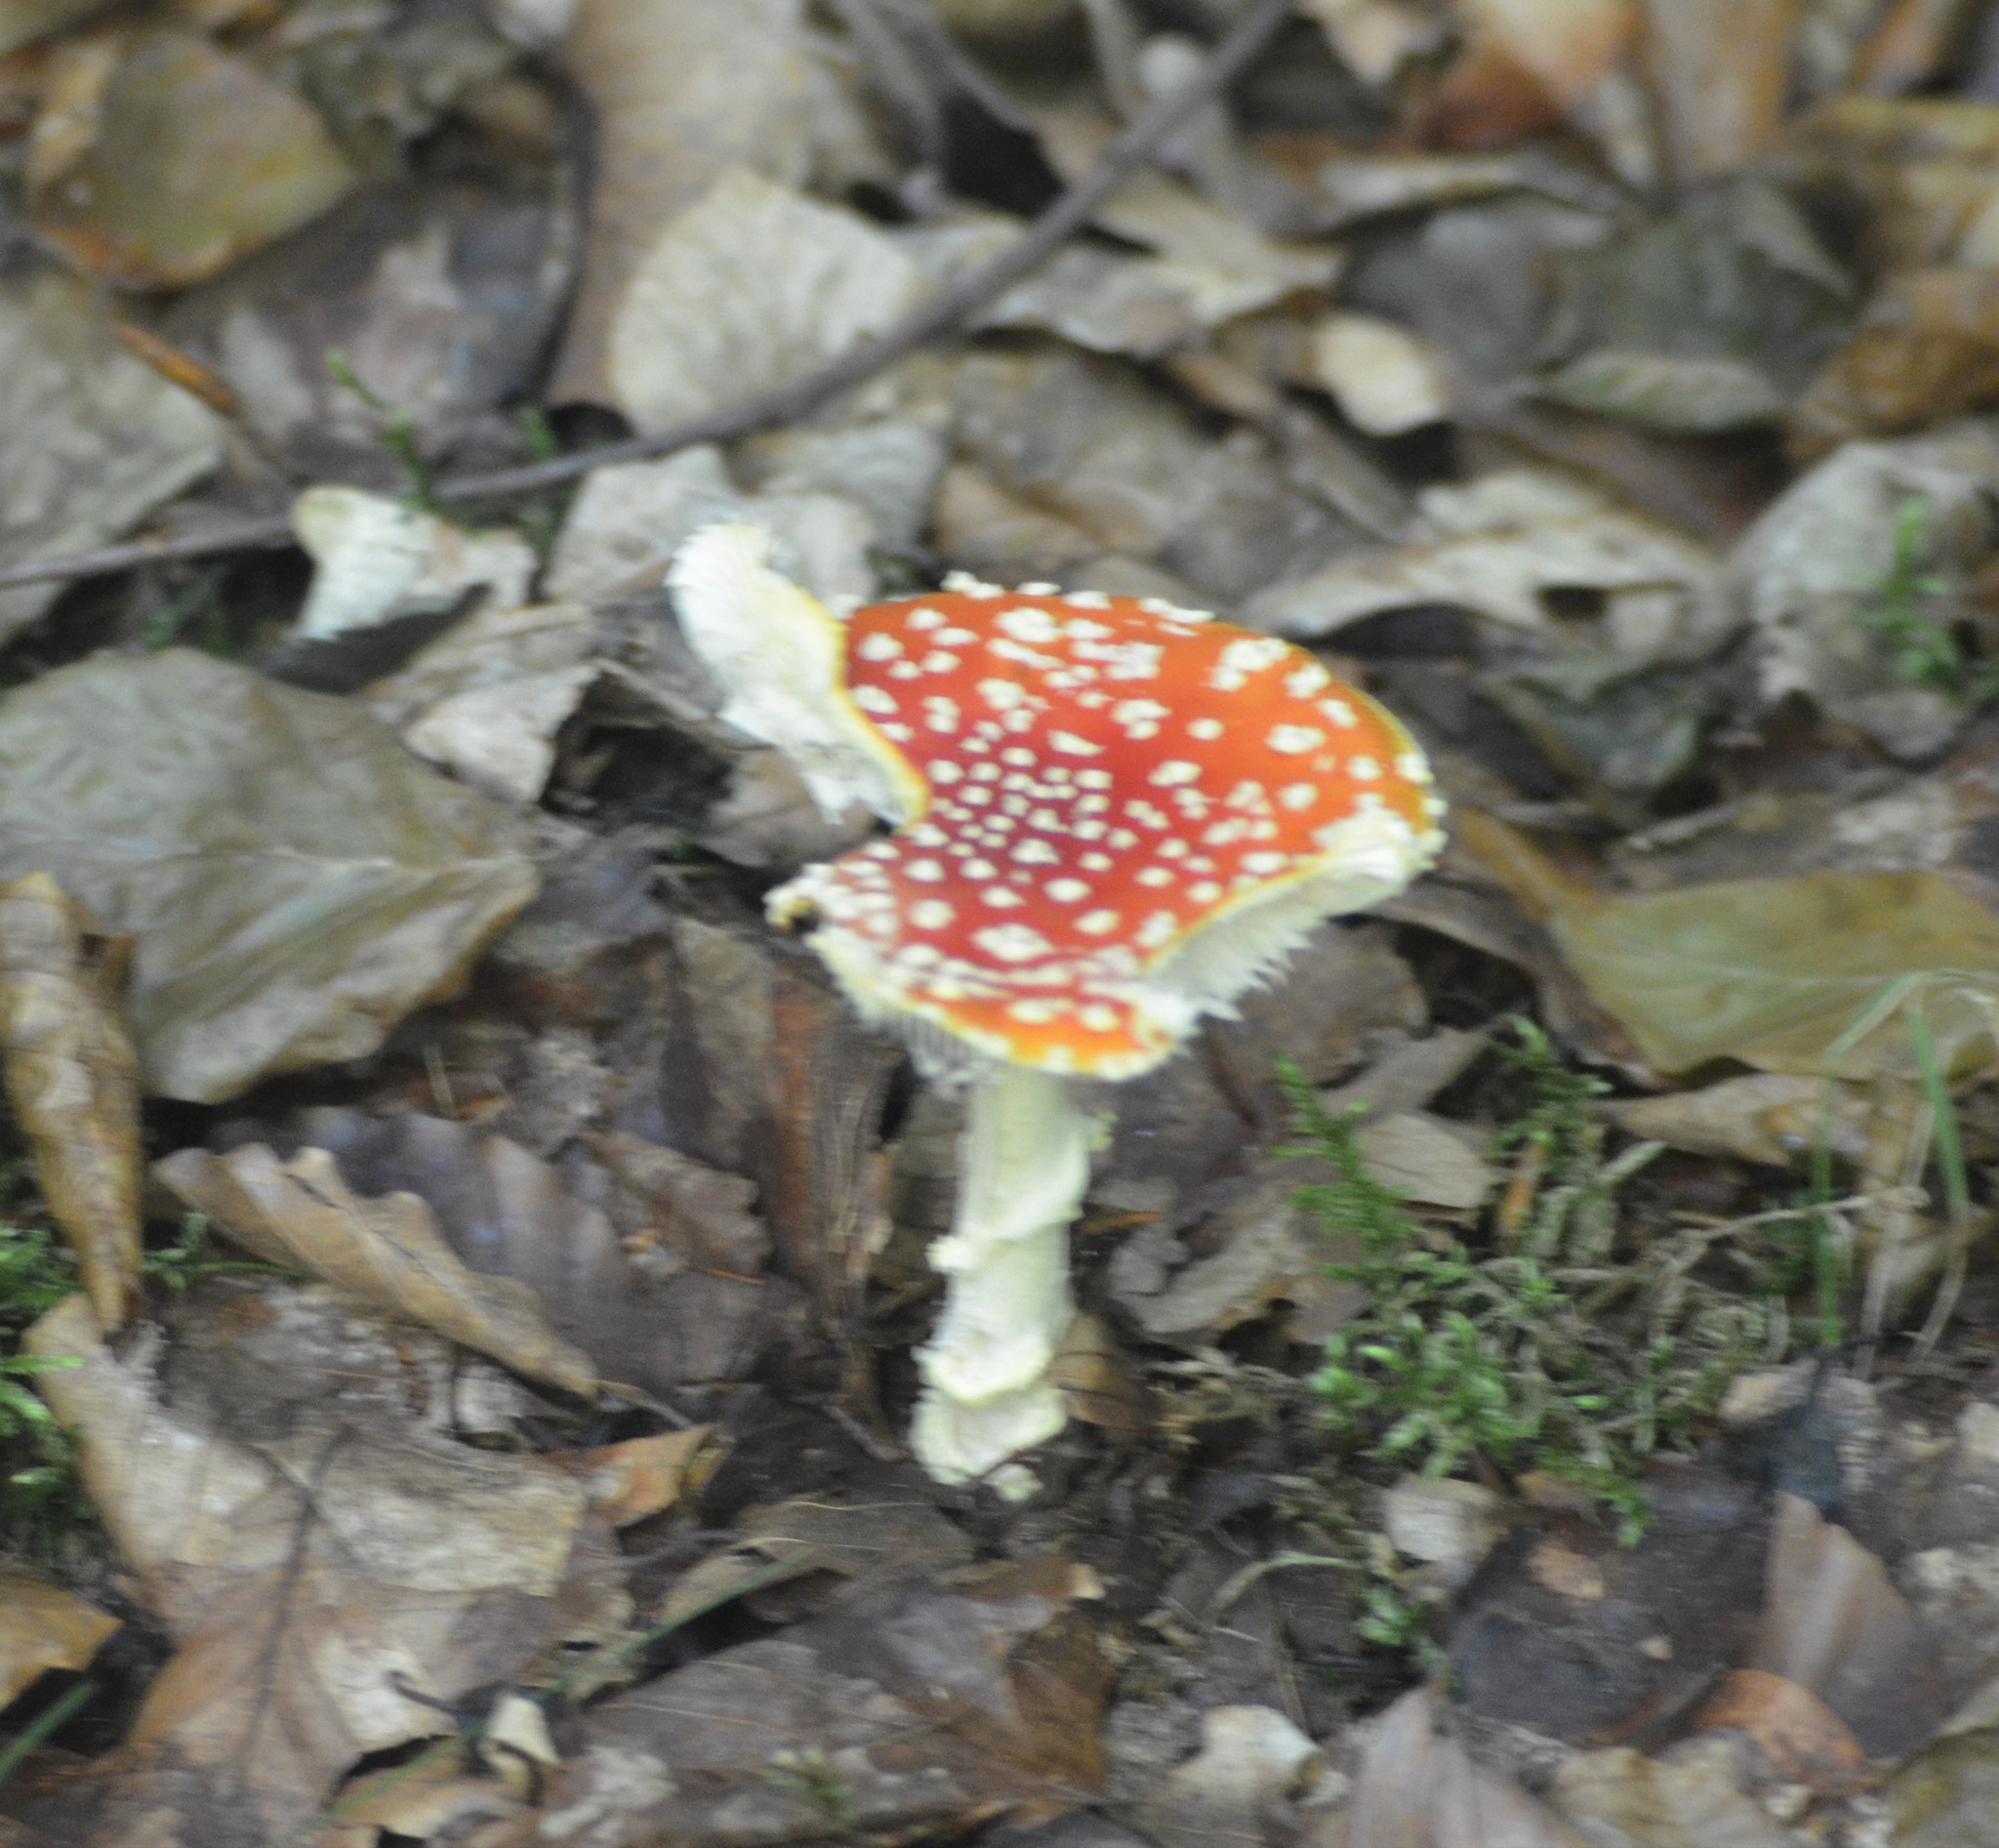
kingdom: Fungi
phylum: Basidiomycota
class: Agaricomycetes
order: Agaricales
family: Amanitaceae
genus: Amanita
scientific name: Amanita muscaria
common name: Fly agaric
